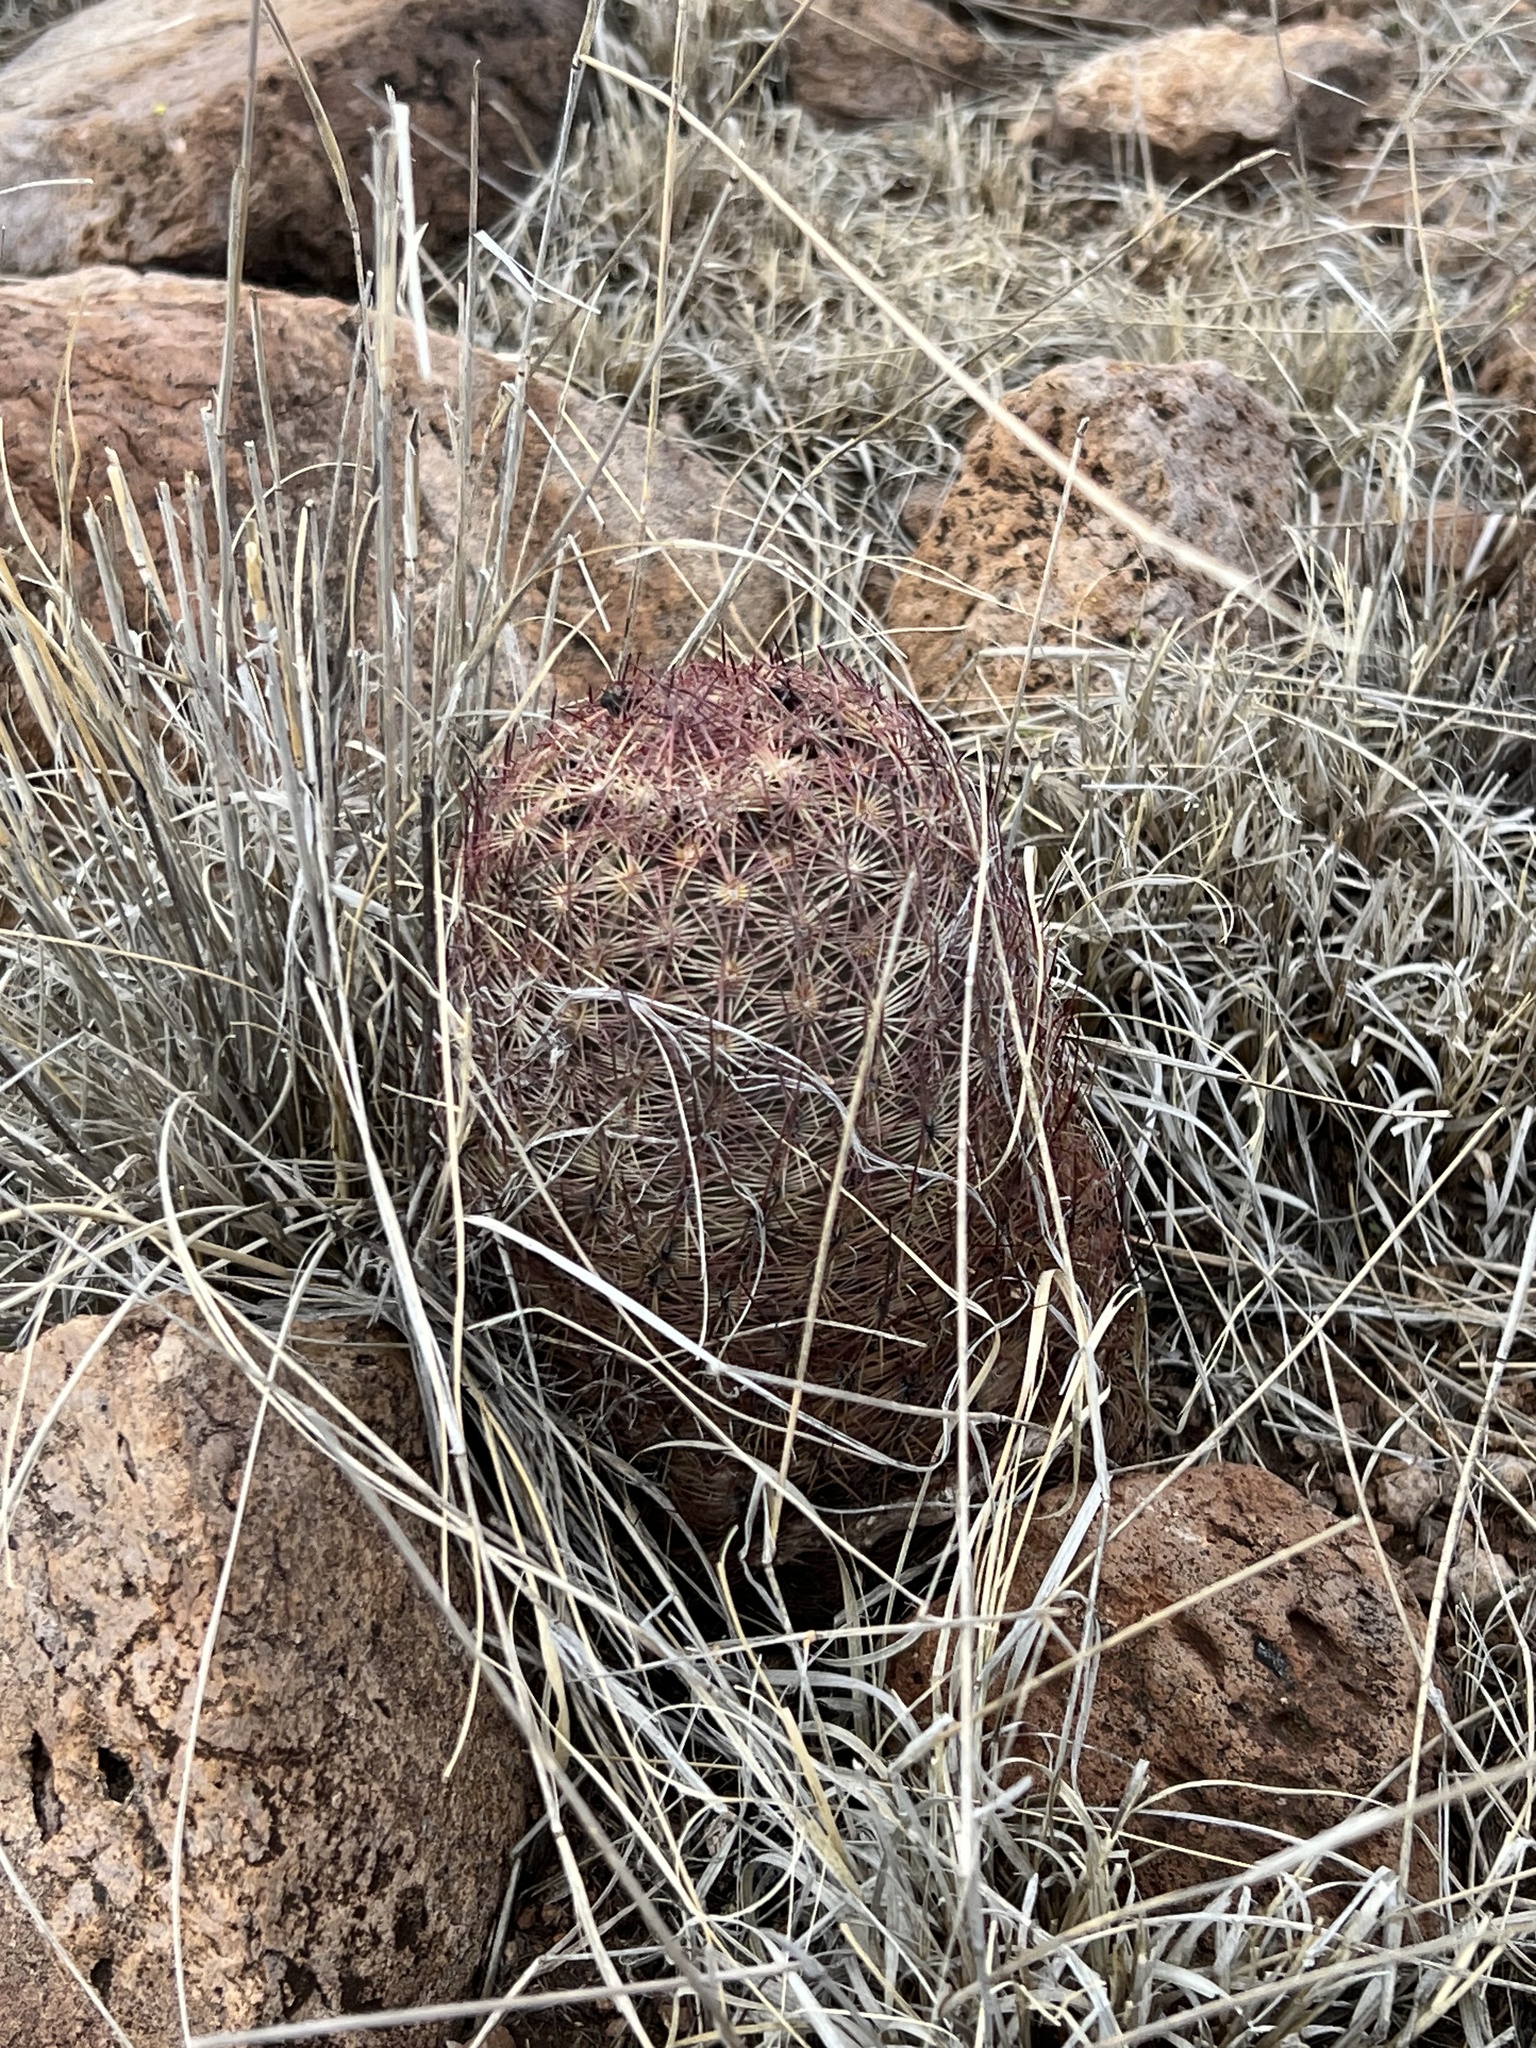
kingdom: Plantae
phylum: Tracheophyta
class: Magnoliopsida
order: Caryophyllales
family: Cactaceae
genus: Sclerocactus
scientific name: Sclerocactus johnsonii
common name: Eight-spine fishhook cactus
